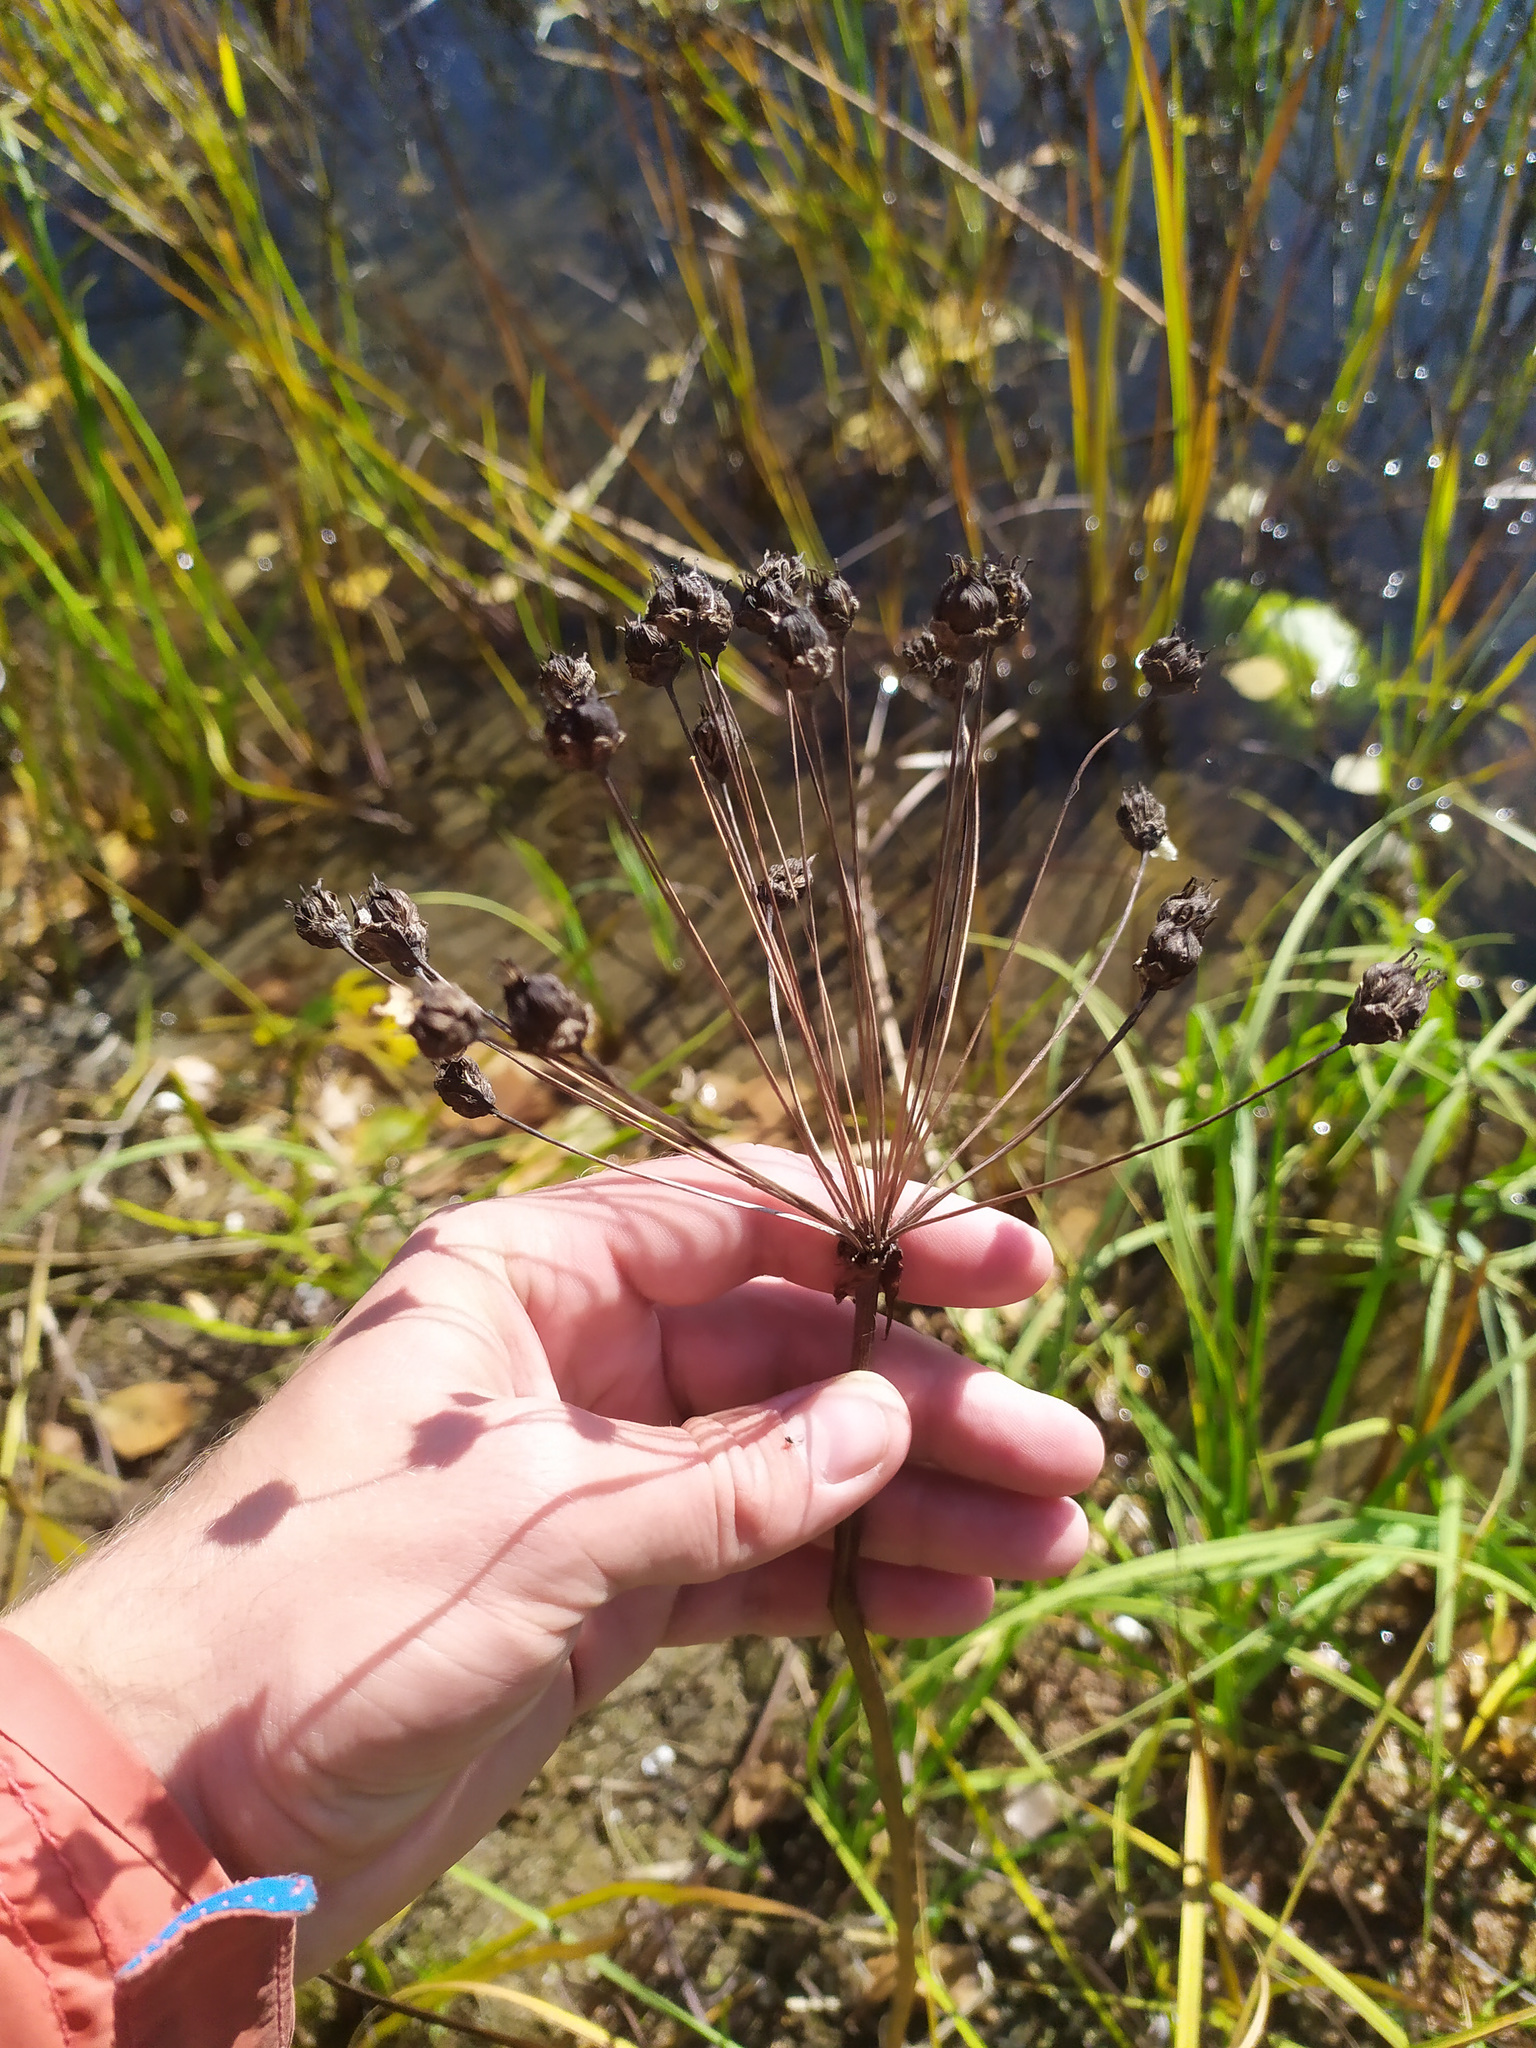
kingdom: Plantae
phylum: Tracheophyta
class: Liliopsida
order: Alismatales
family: Butomaceae
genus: Butomus
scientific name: Butomus umbellatus
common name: Flowering-rush
